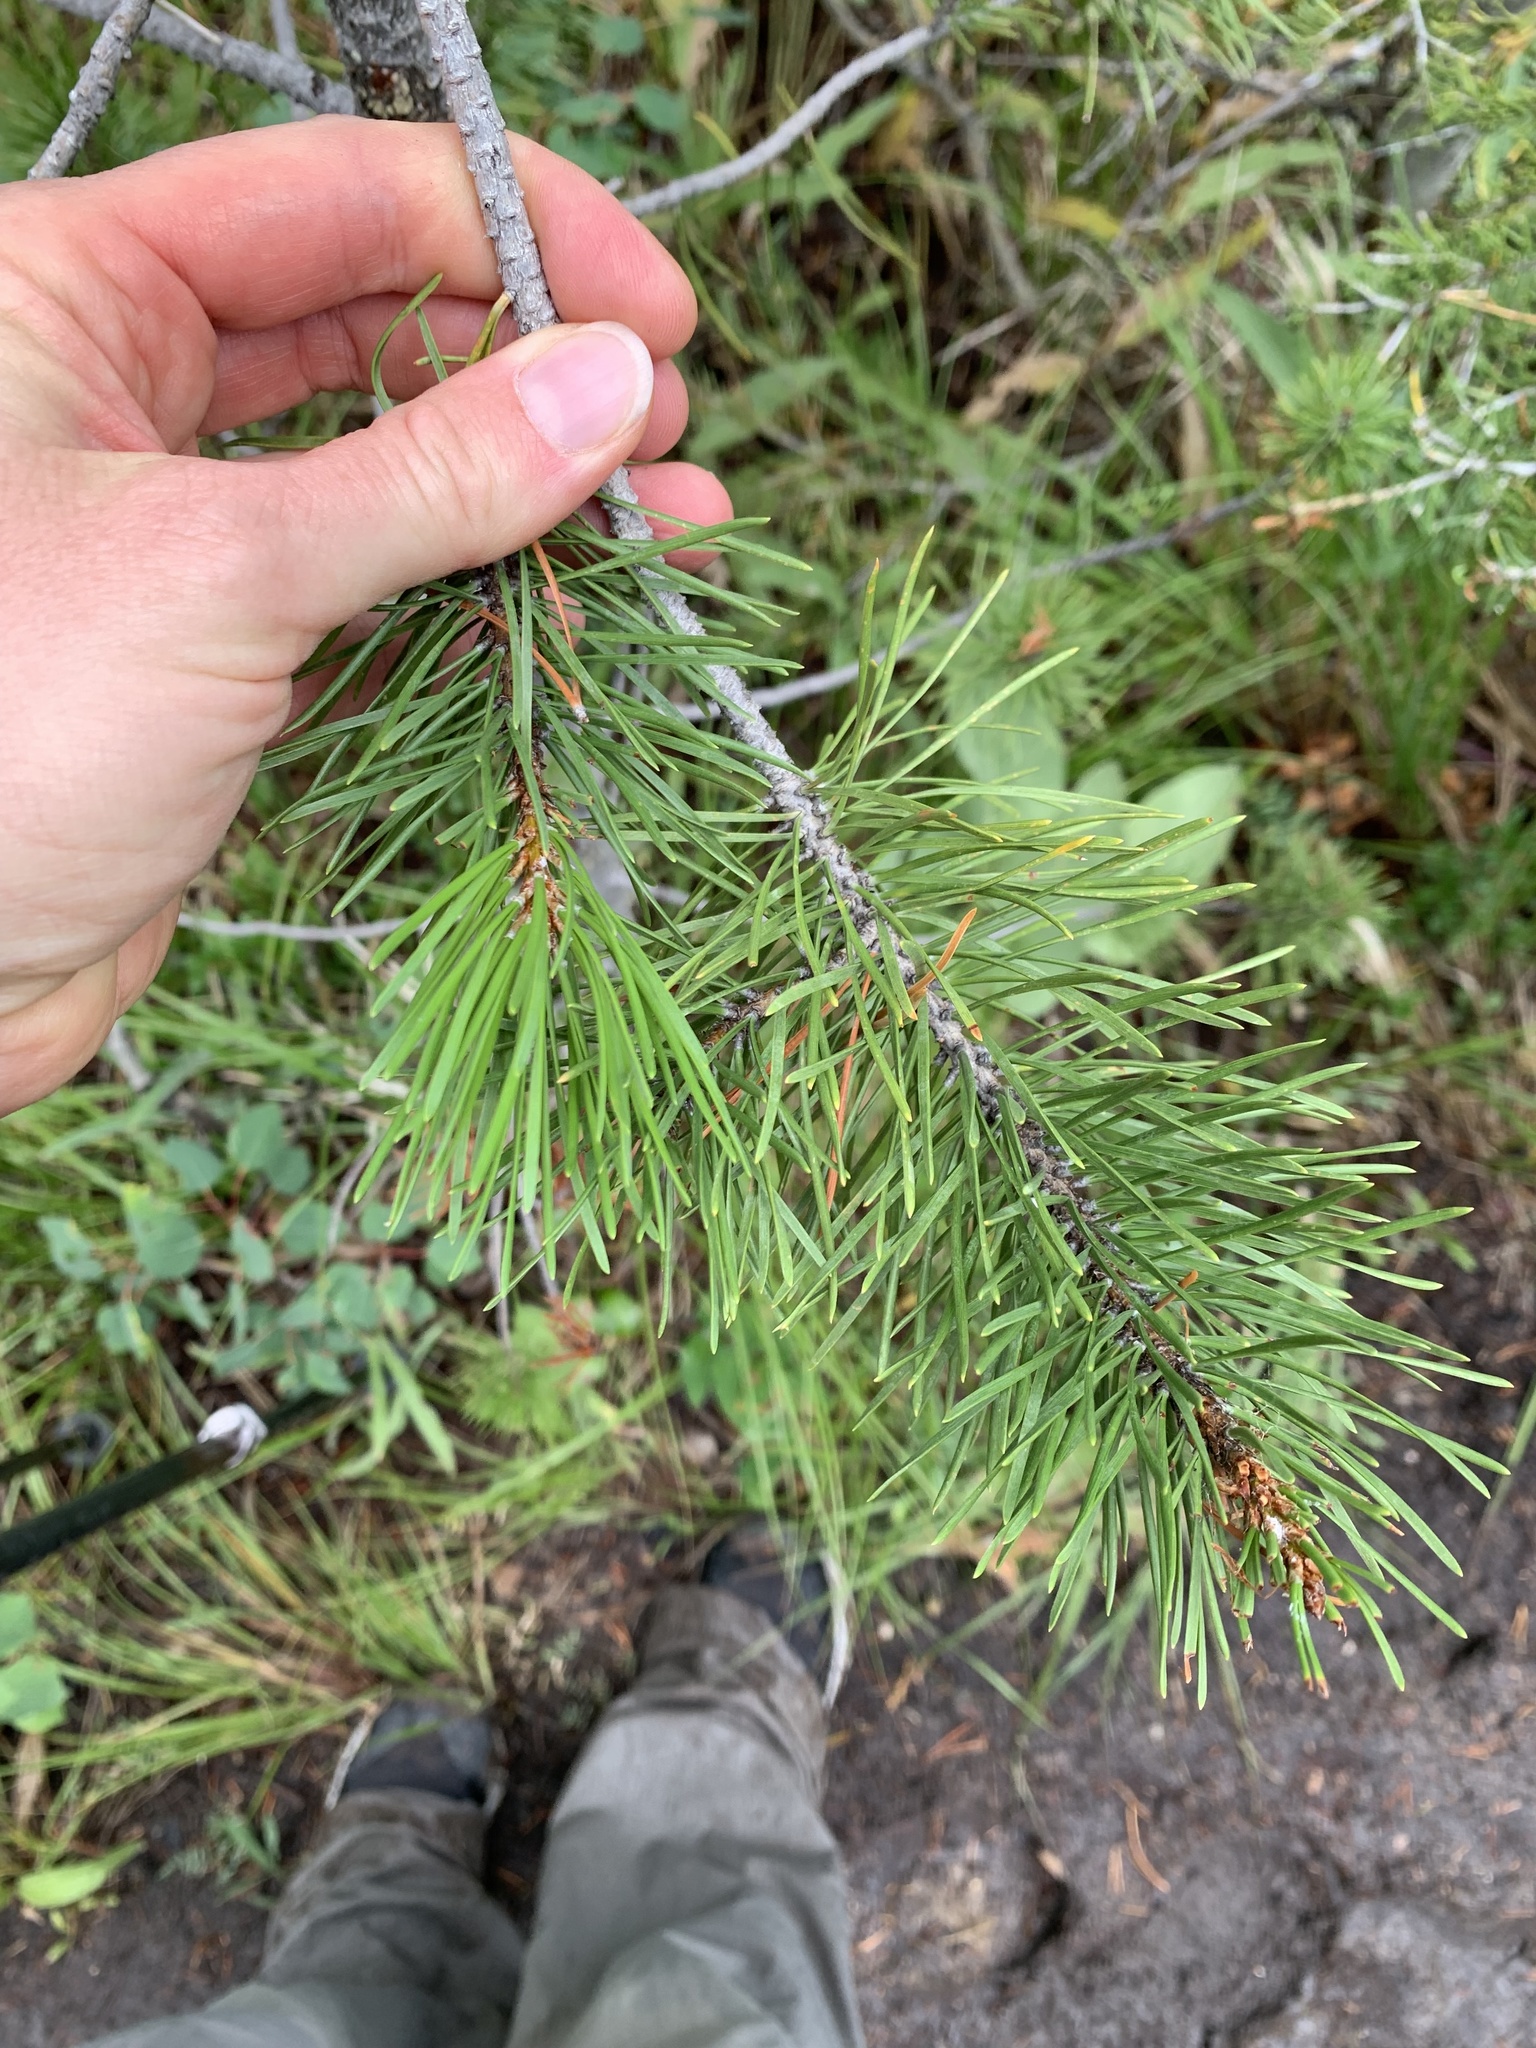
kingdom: Plantae
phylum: Tracheophyta
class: Pinopsida
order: Pinales
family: Pinaceae
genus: Pinus
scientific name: Pinus contorta
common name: Lodgepole pine
